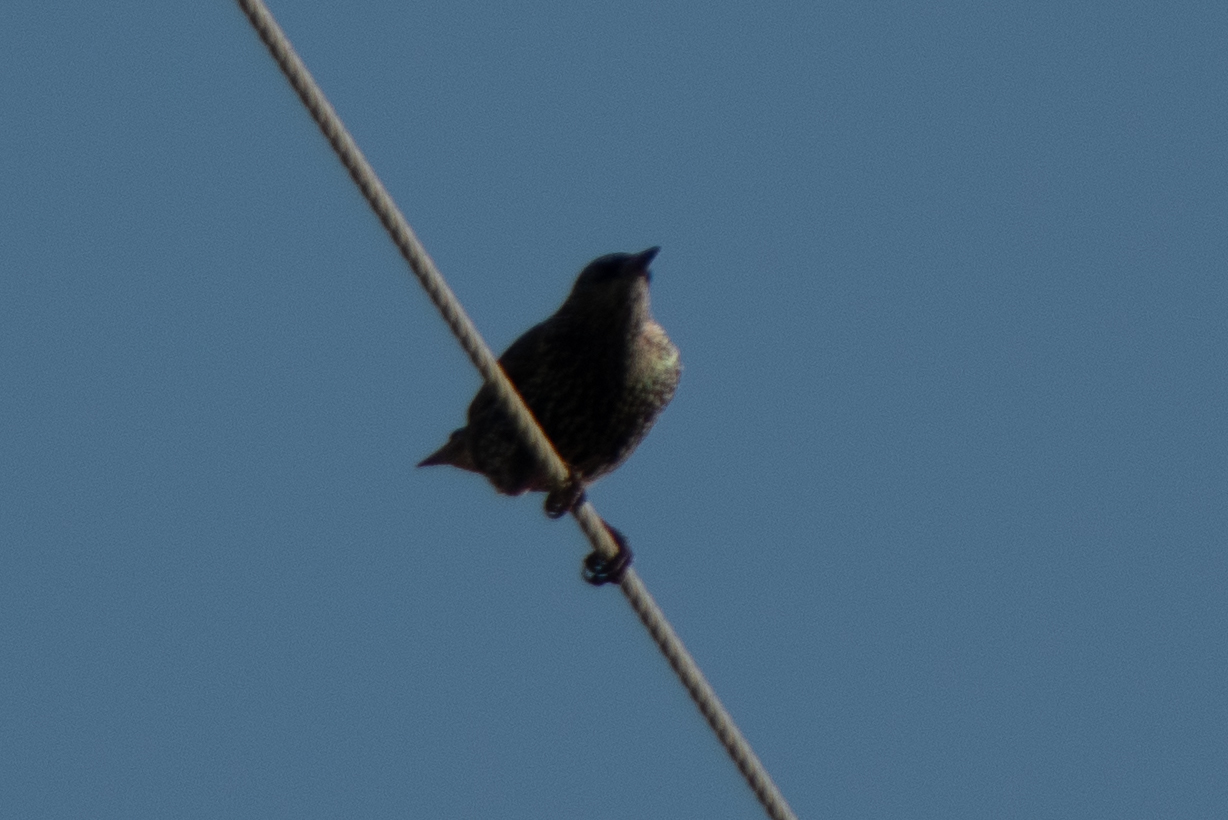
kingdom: Animalia
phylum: Chordata
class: Aves
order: Passeriformes
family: Sturnidae
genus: Sturnus
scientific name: Sturnus vulgaris
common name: Common starling
